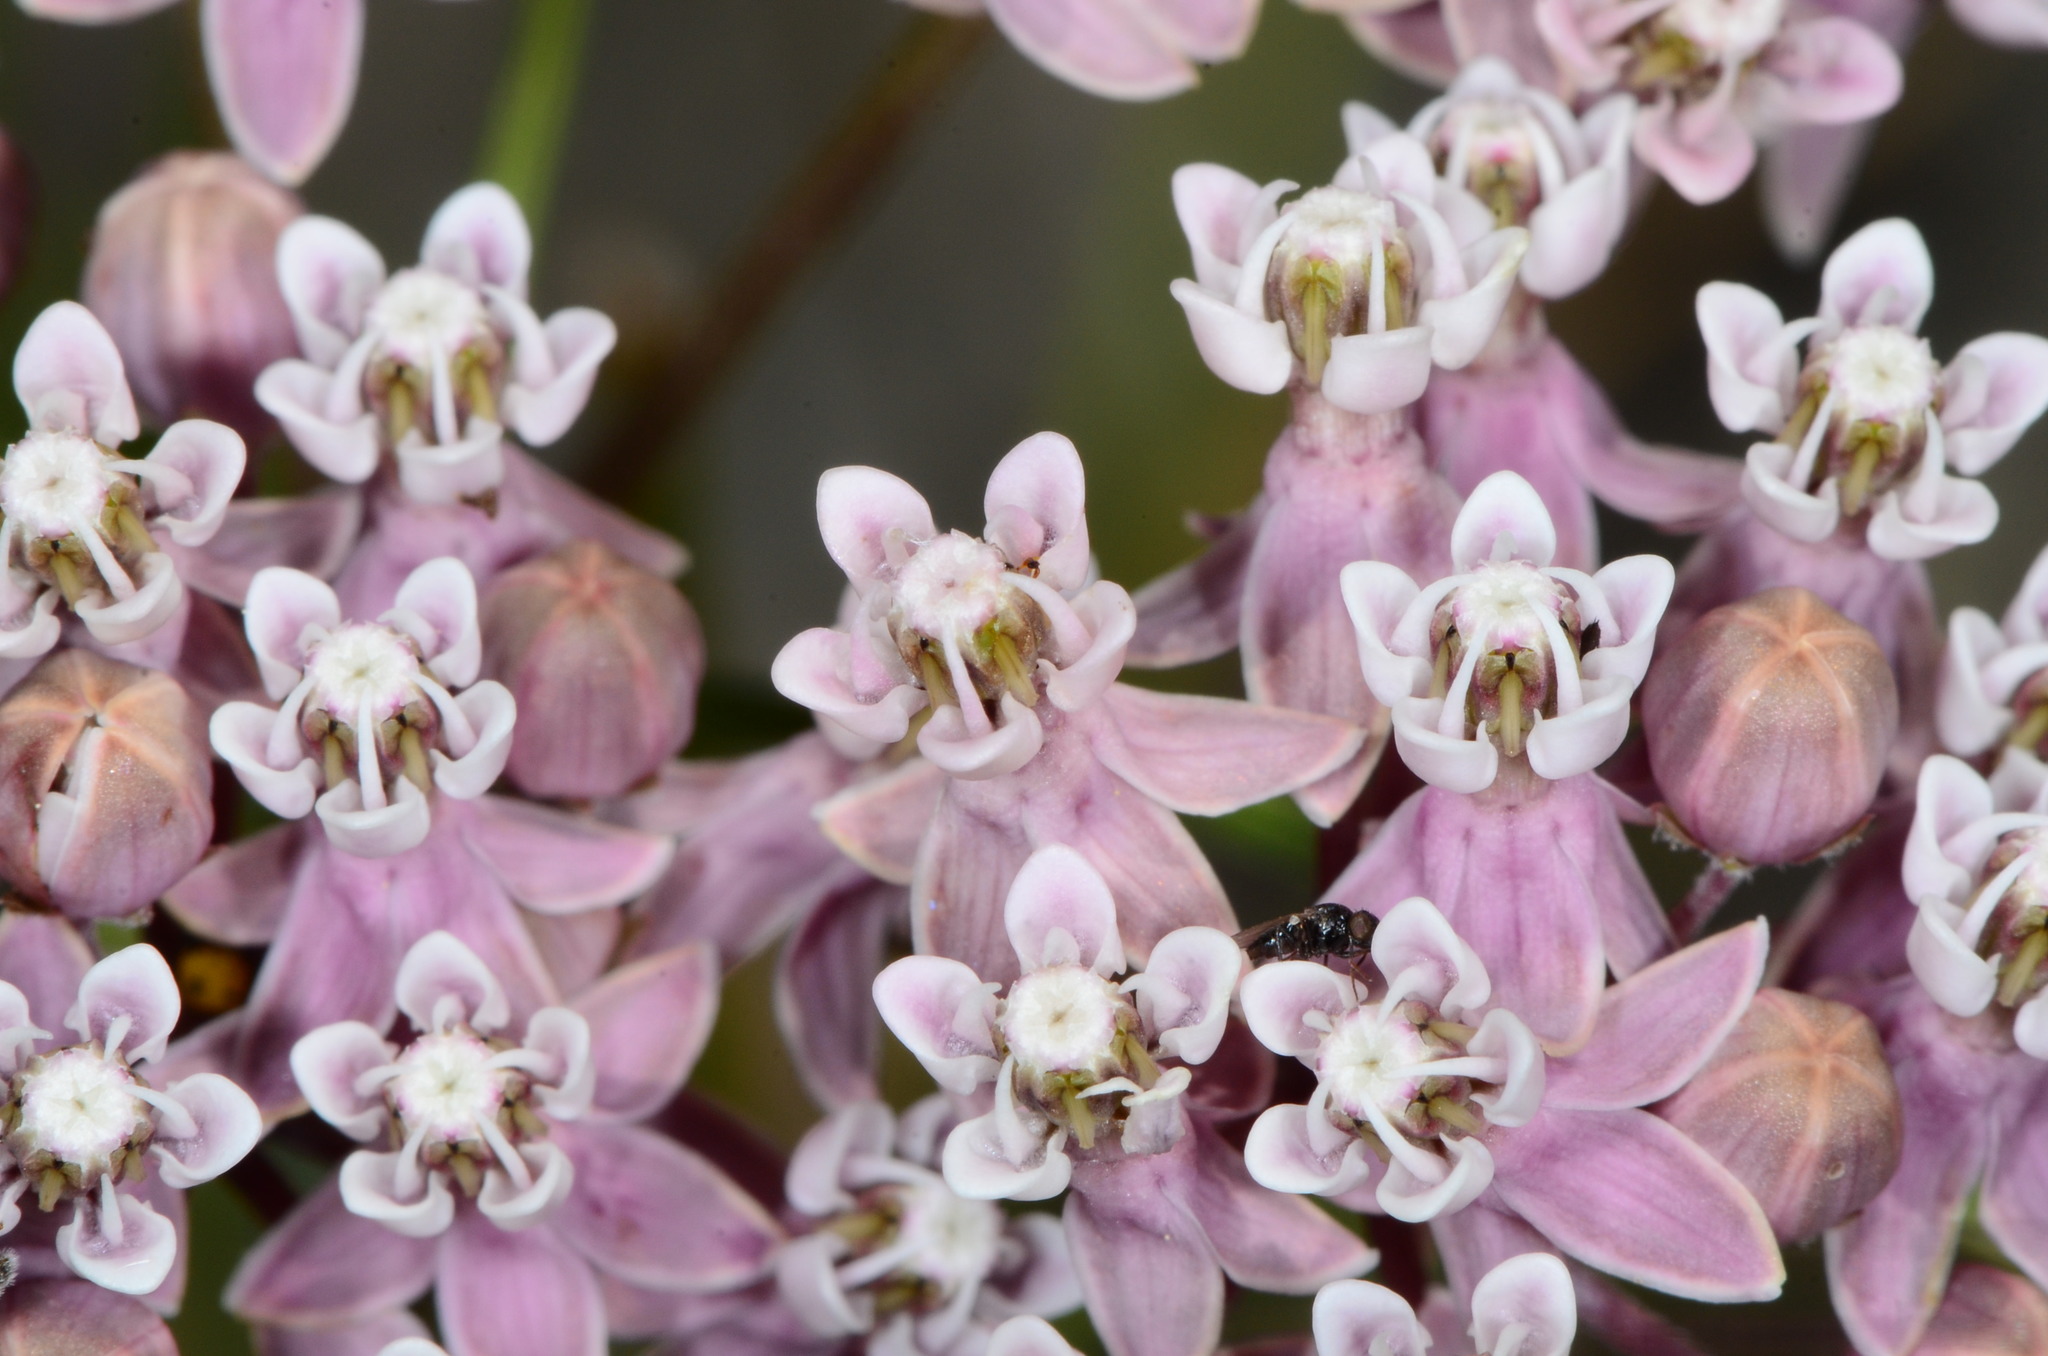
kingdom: Plantae
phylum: Tracheophyta
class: Magnoliopsida
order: Gentianales
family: Apocynaceae
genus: Asclepias
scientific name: Asclepias fascicularis
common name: Mexican milkweed
